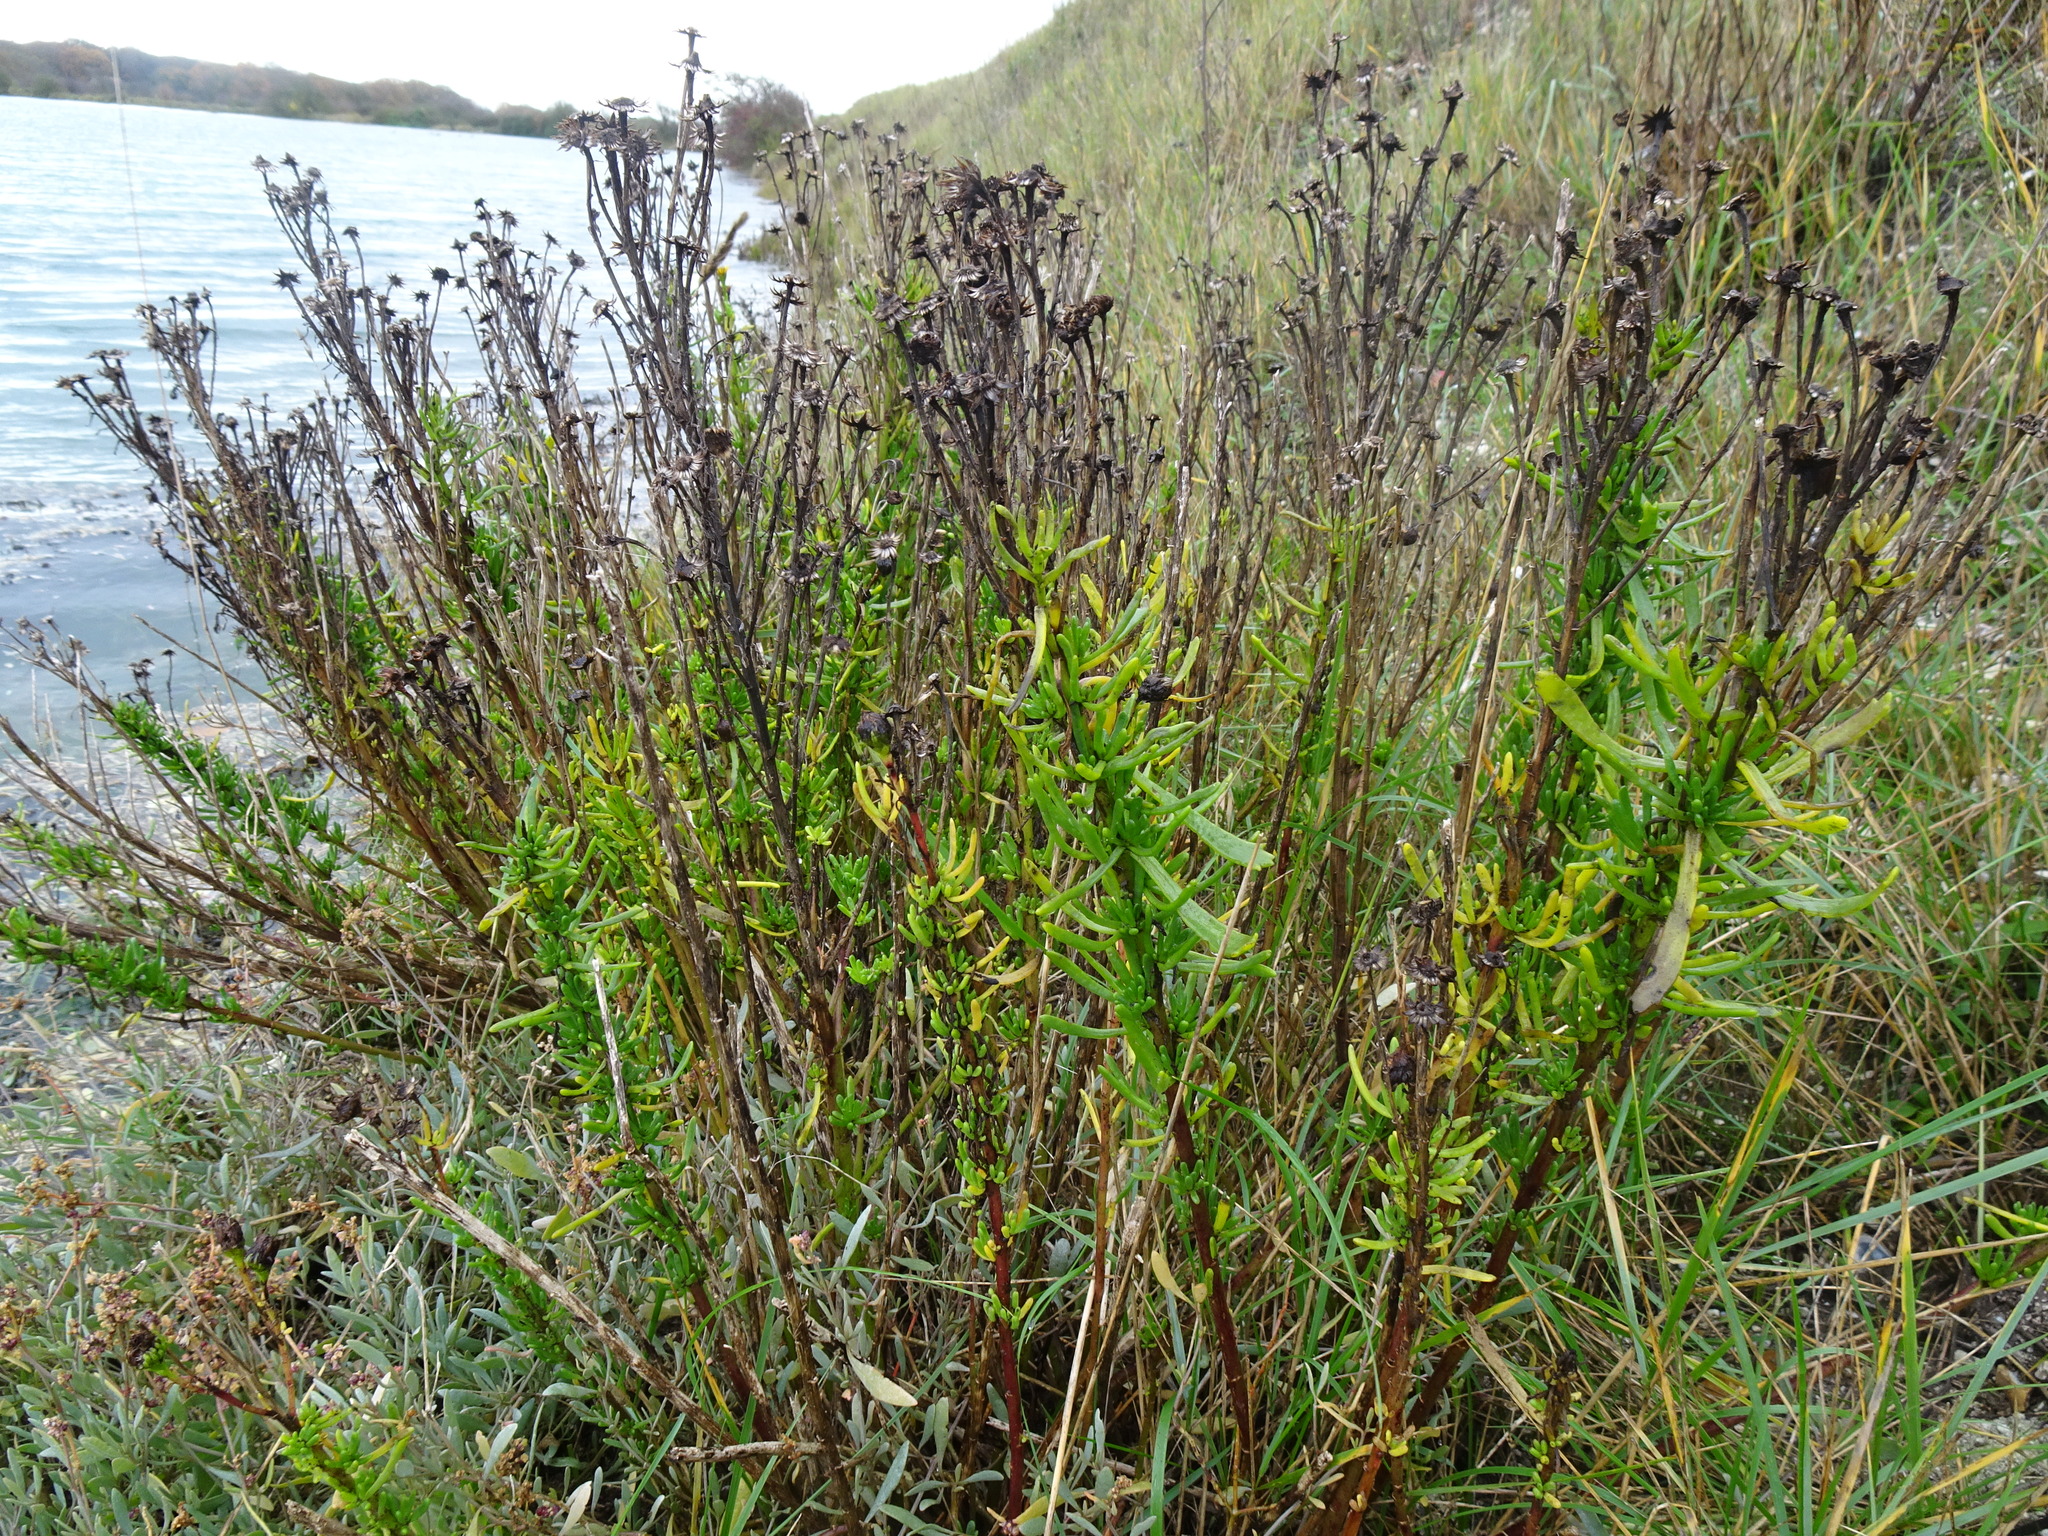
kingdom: Plantae
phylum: Tracheophyta
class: Magnoliopsida
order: Asterales
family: Asteraceae
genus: Limbarda
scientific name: Limbarda crithmoides
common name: Golden samphire
